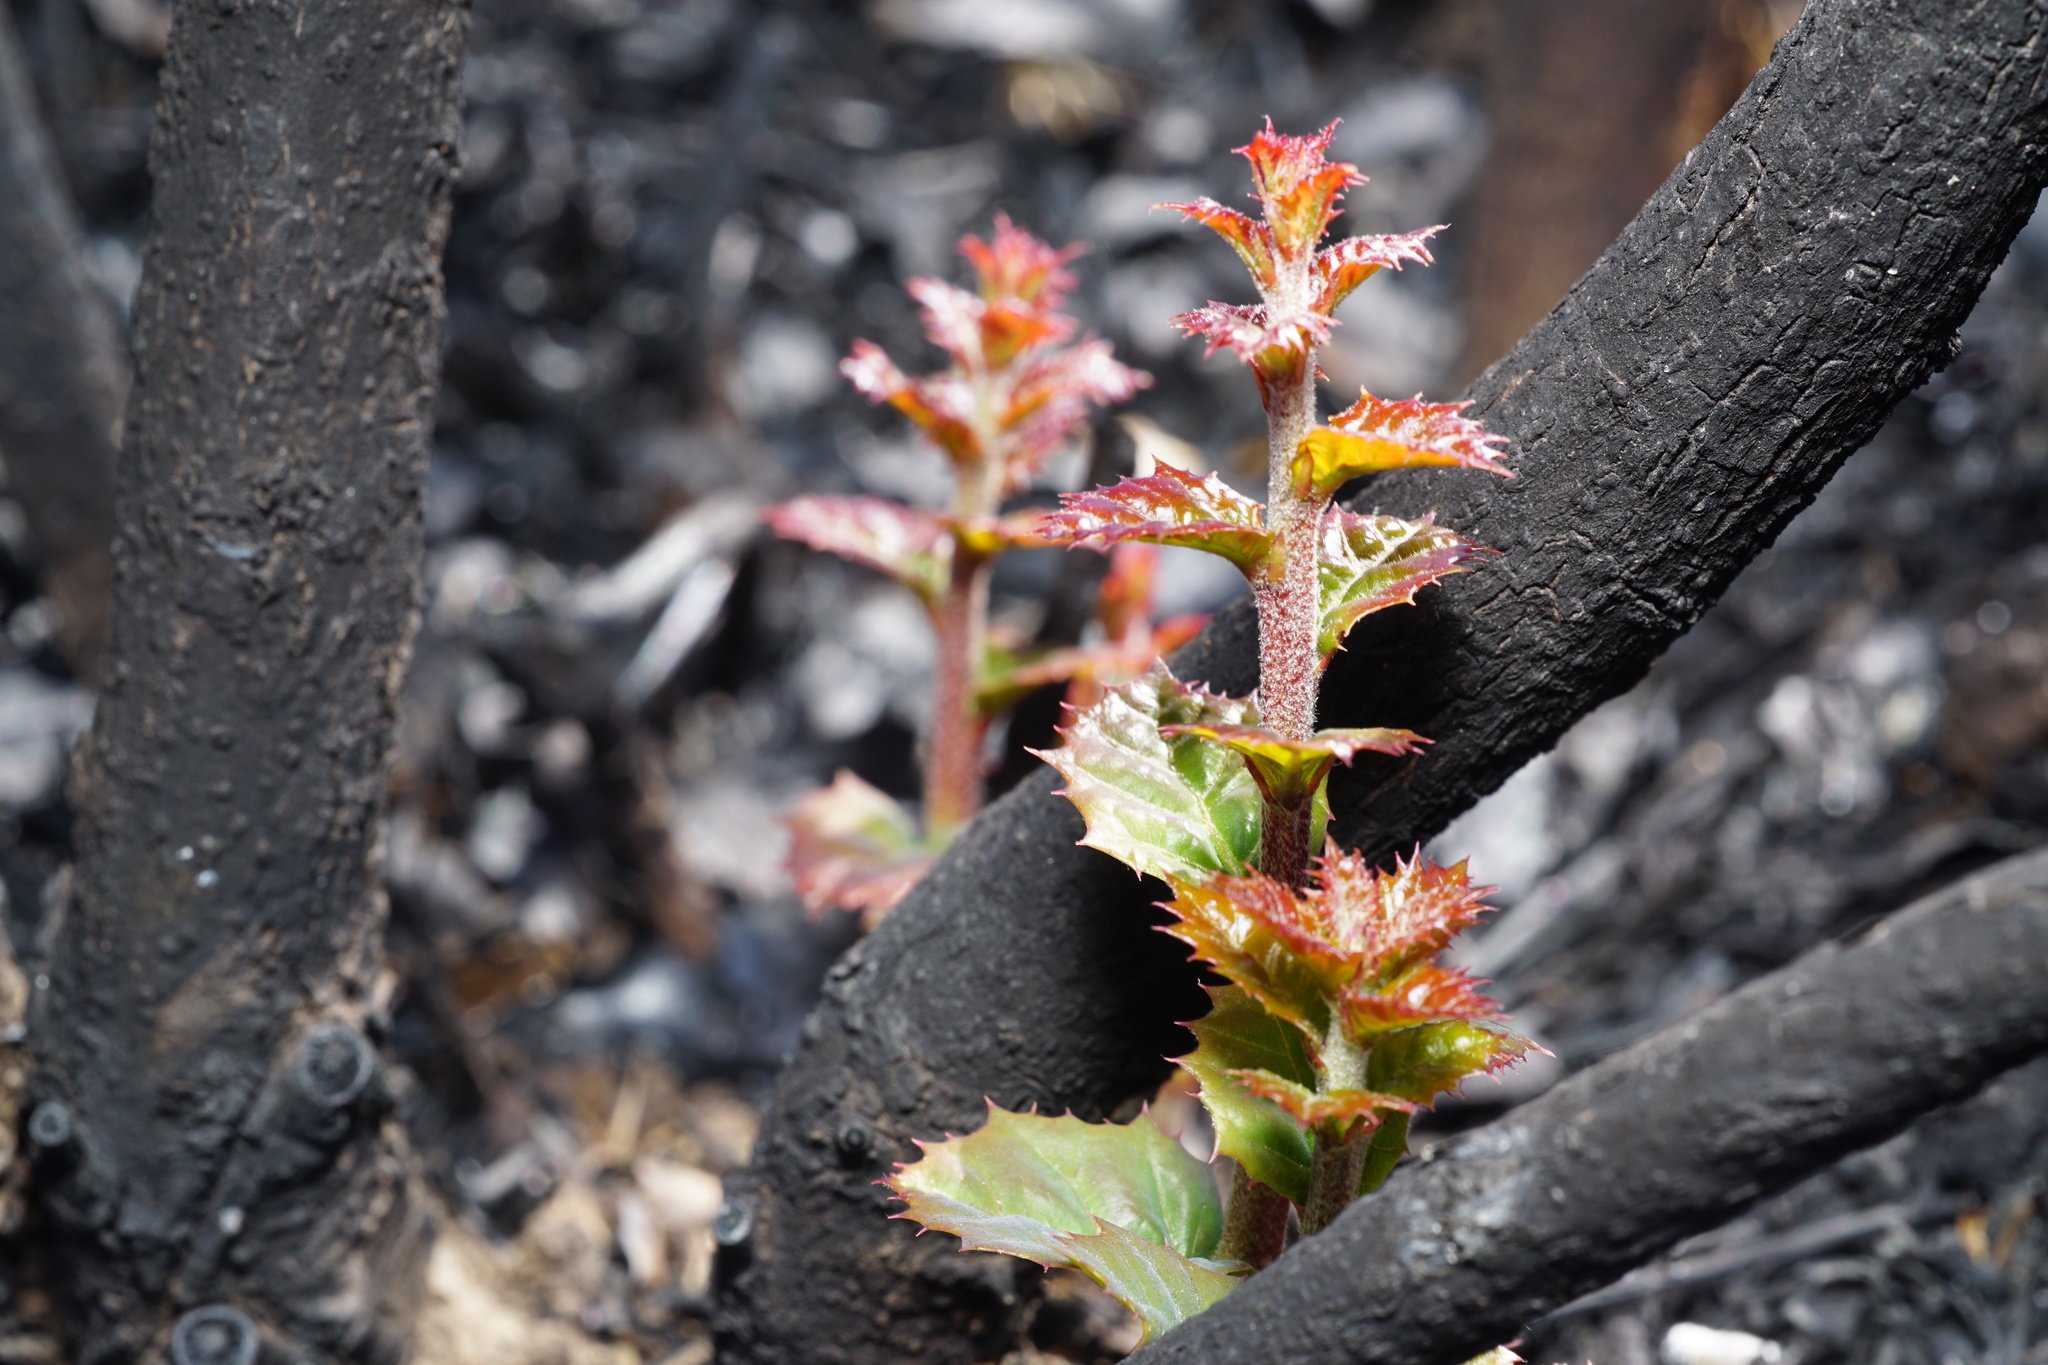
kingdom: Plantae
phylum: Tracheophyta
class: Magnoliopsida
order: Fagales
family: Fagaceae
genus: Quercus
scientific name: Quercus turbinella
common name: Sonoran scrub oak
